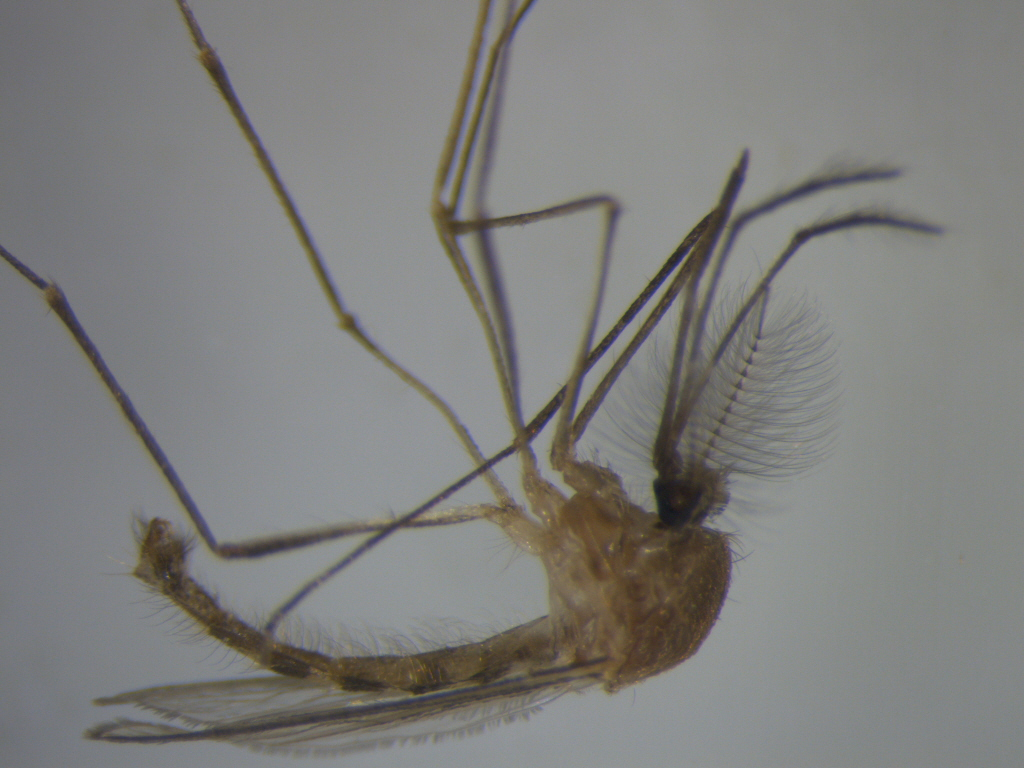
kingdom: Animalia
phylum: Arthropoda
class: Insecta
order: Diptera
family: Culicidae
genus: Culex
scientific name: Culex quinquefasciatus
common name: Southern house mosquito
